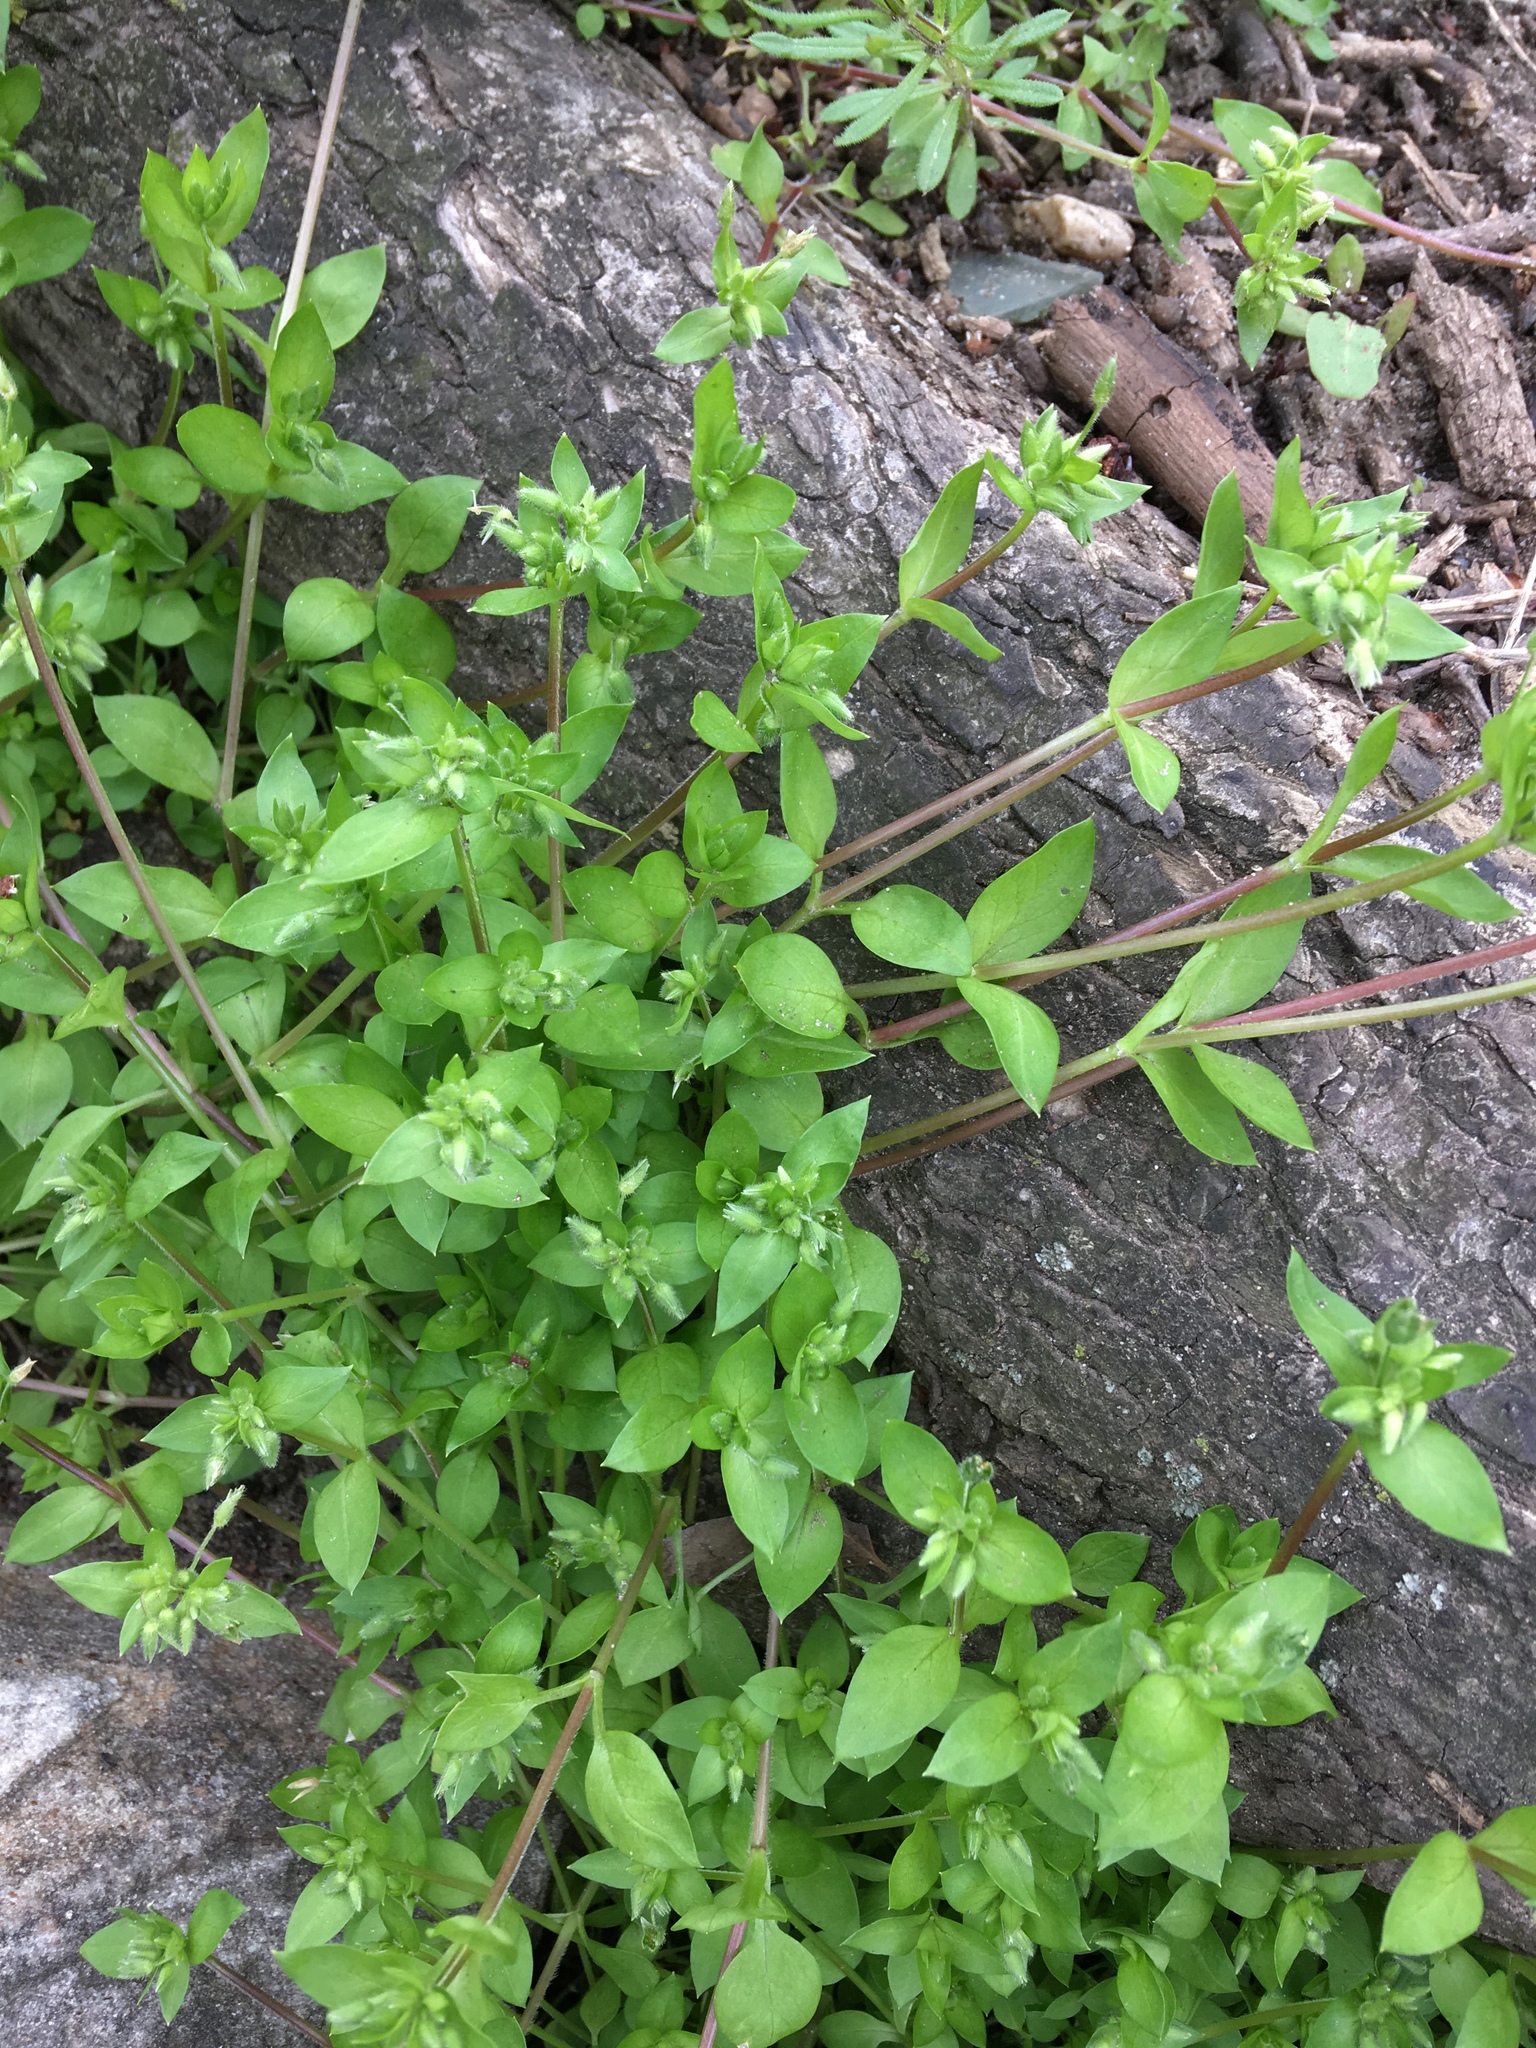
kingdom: Plantae
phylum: Tracheophyta
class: Magnoliopsida
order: Caryophyllales
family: Caryophyllaceae
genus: Stellaria
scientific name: Stellaria media
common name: Common chickweed
